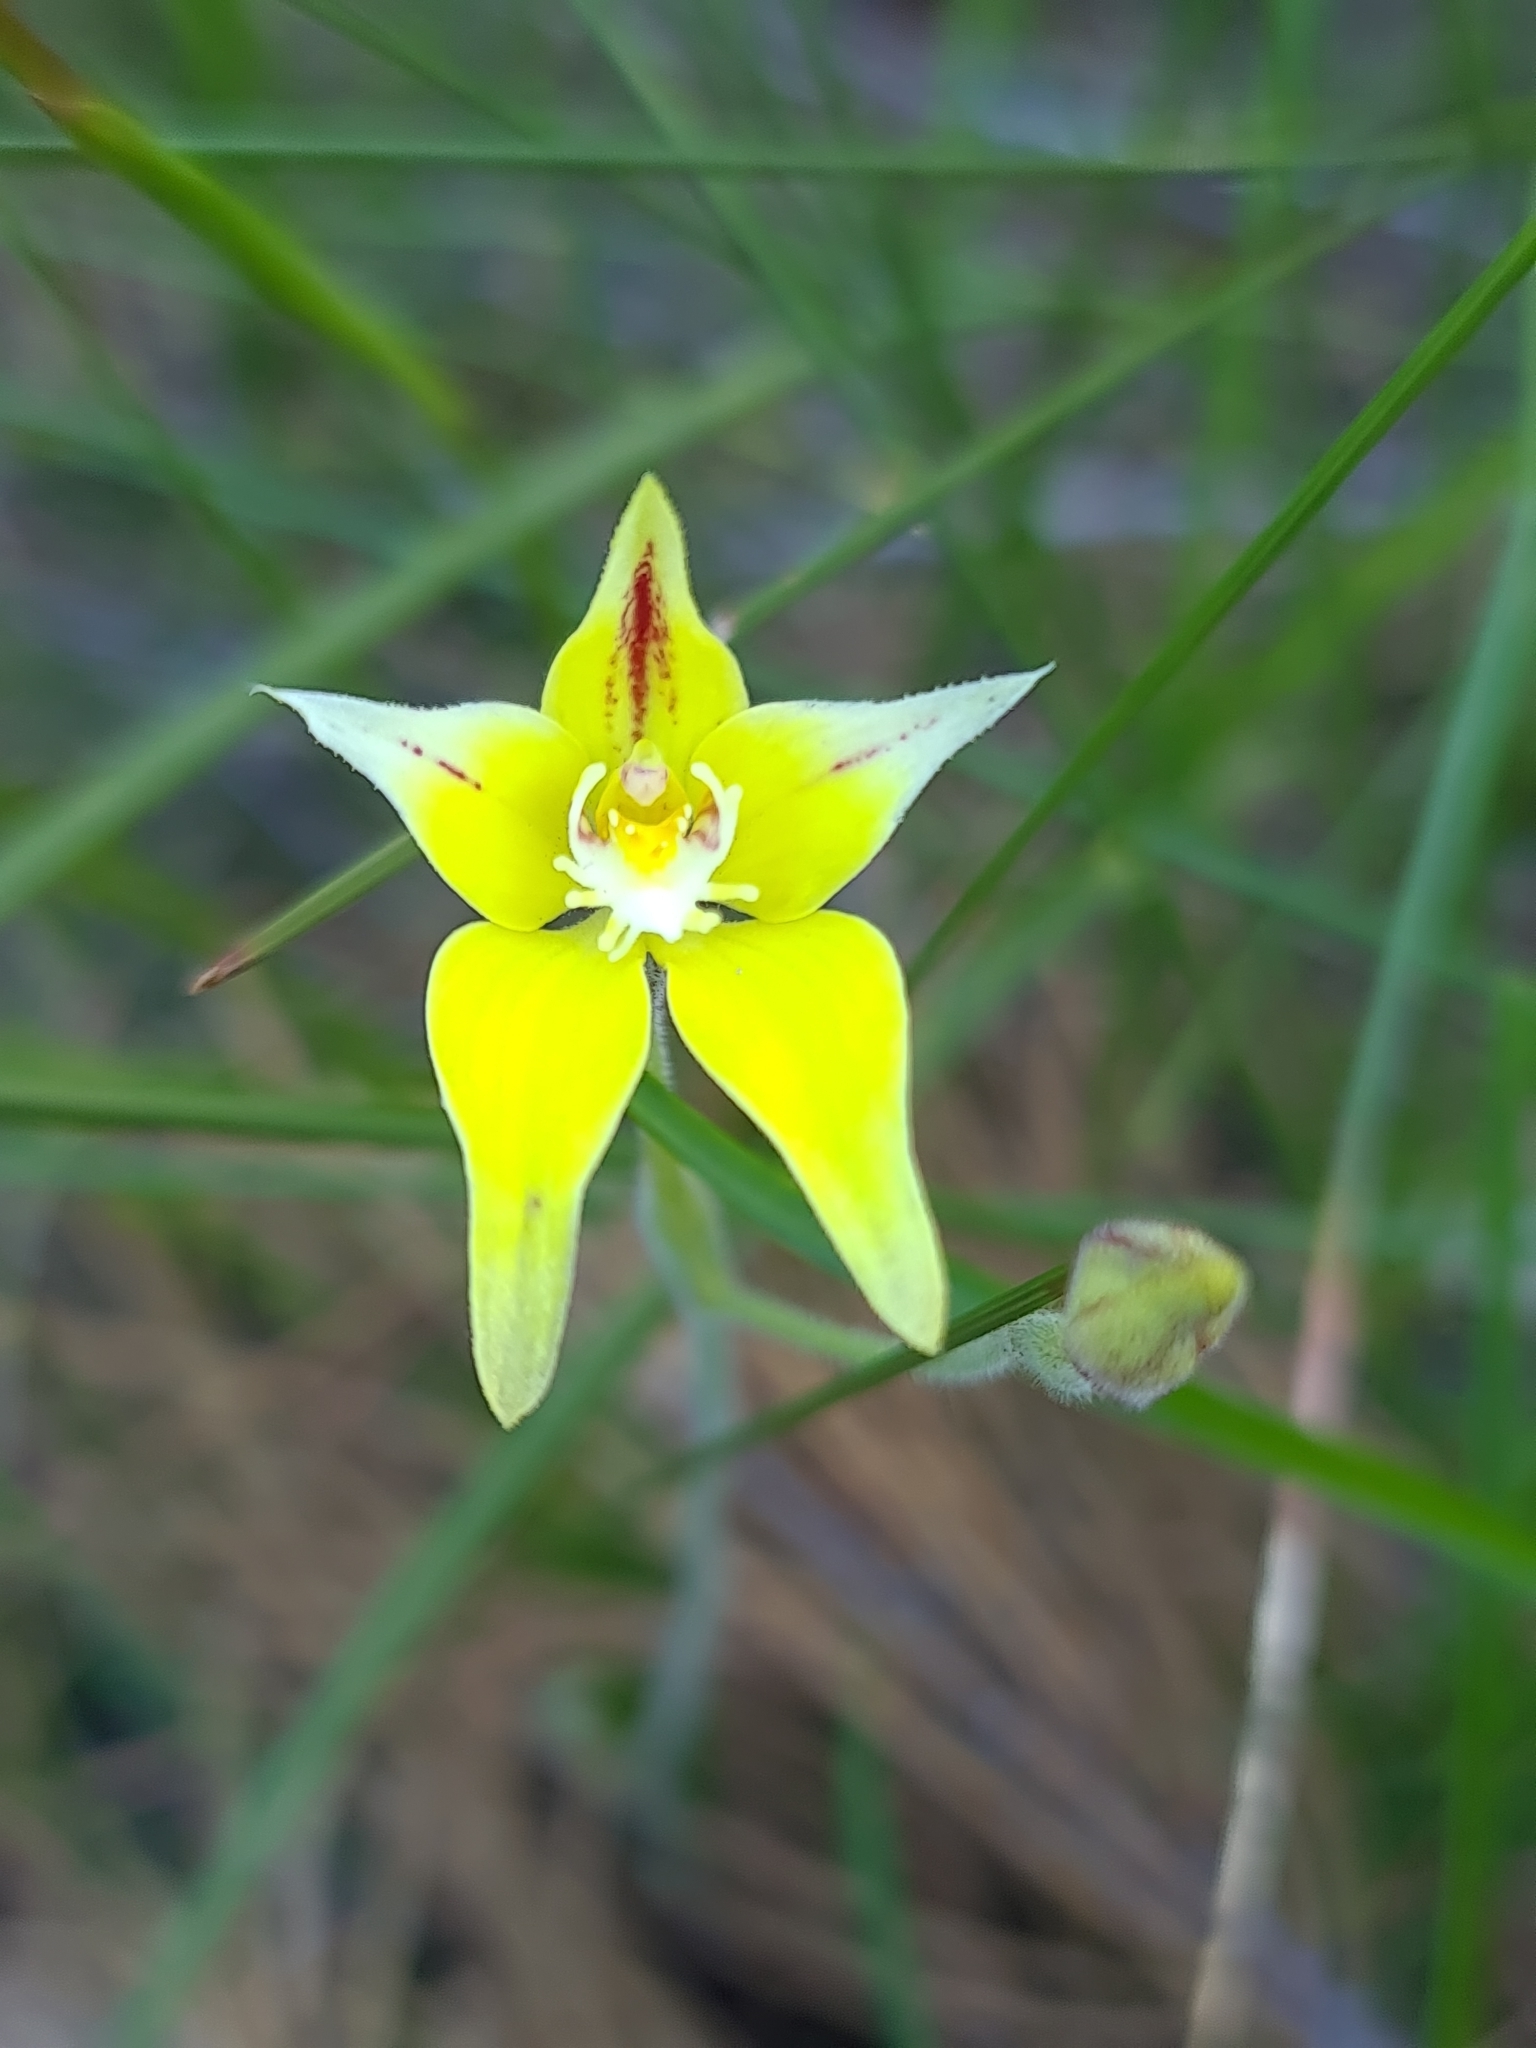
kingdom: Plantae
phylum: Tracheophyta
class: Liliopsida
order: Asparagales
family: Orchidaceae
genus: Caladenia
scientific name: Caladenia flava
